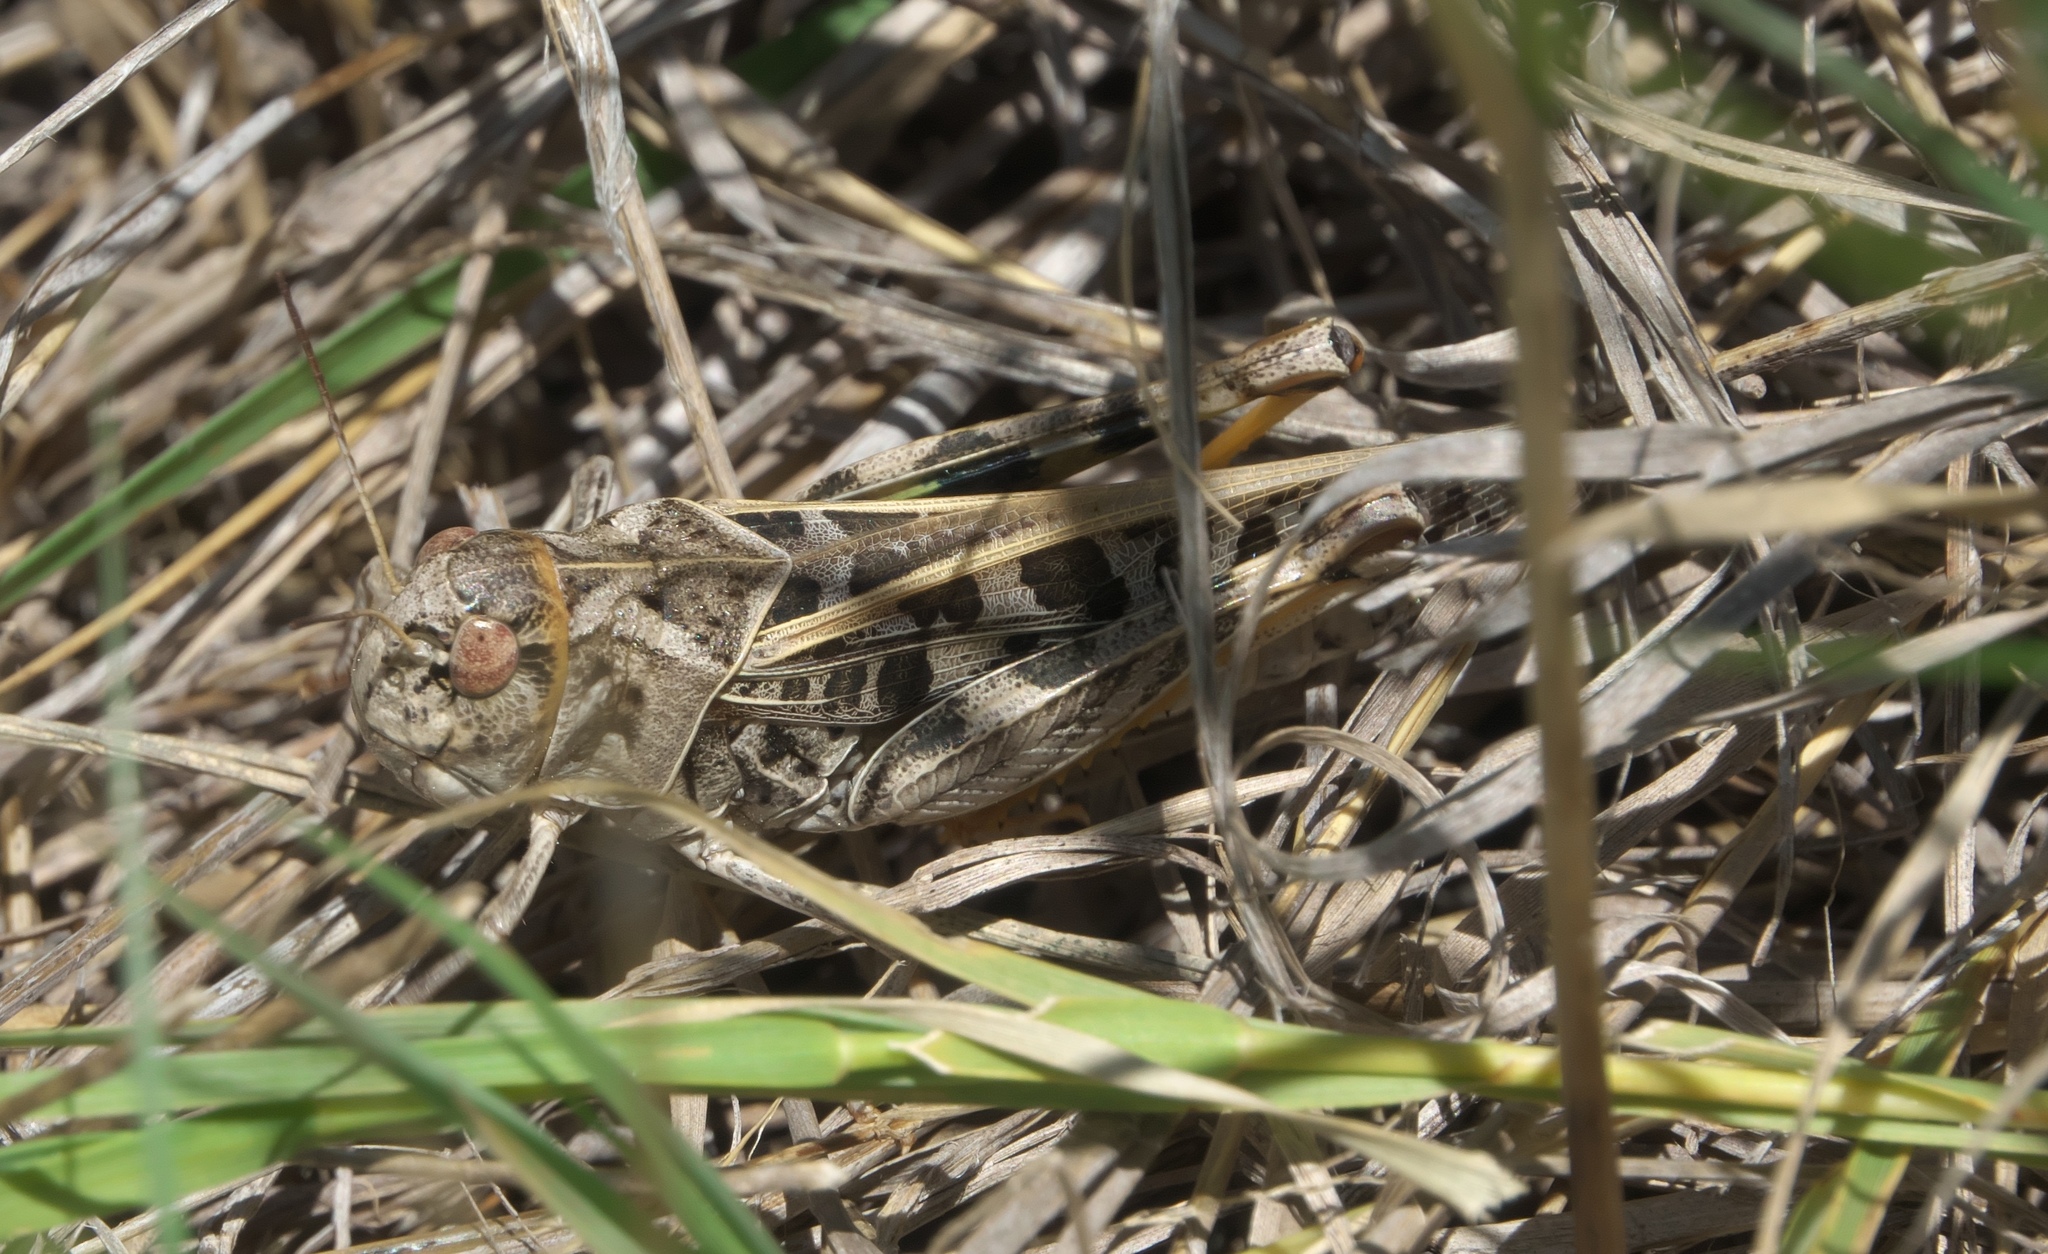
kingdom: Animalia
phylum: Arthropoda
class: Insecta
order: Orthoptera
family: Acrididae
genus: Hippiscus
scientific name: Hippiscus ocelote
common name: Wrinkled grasshopper
